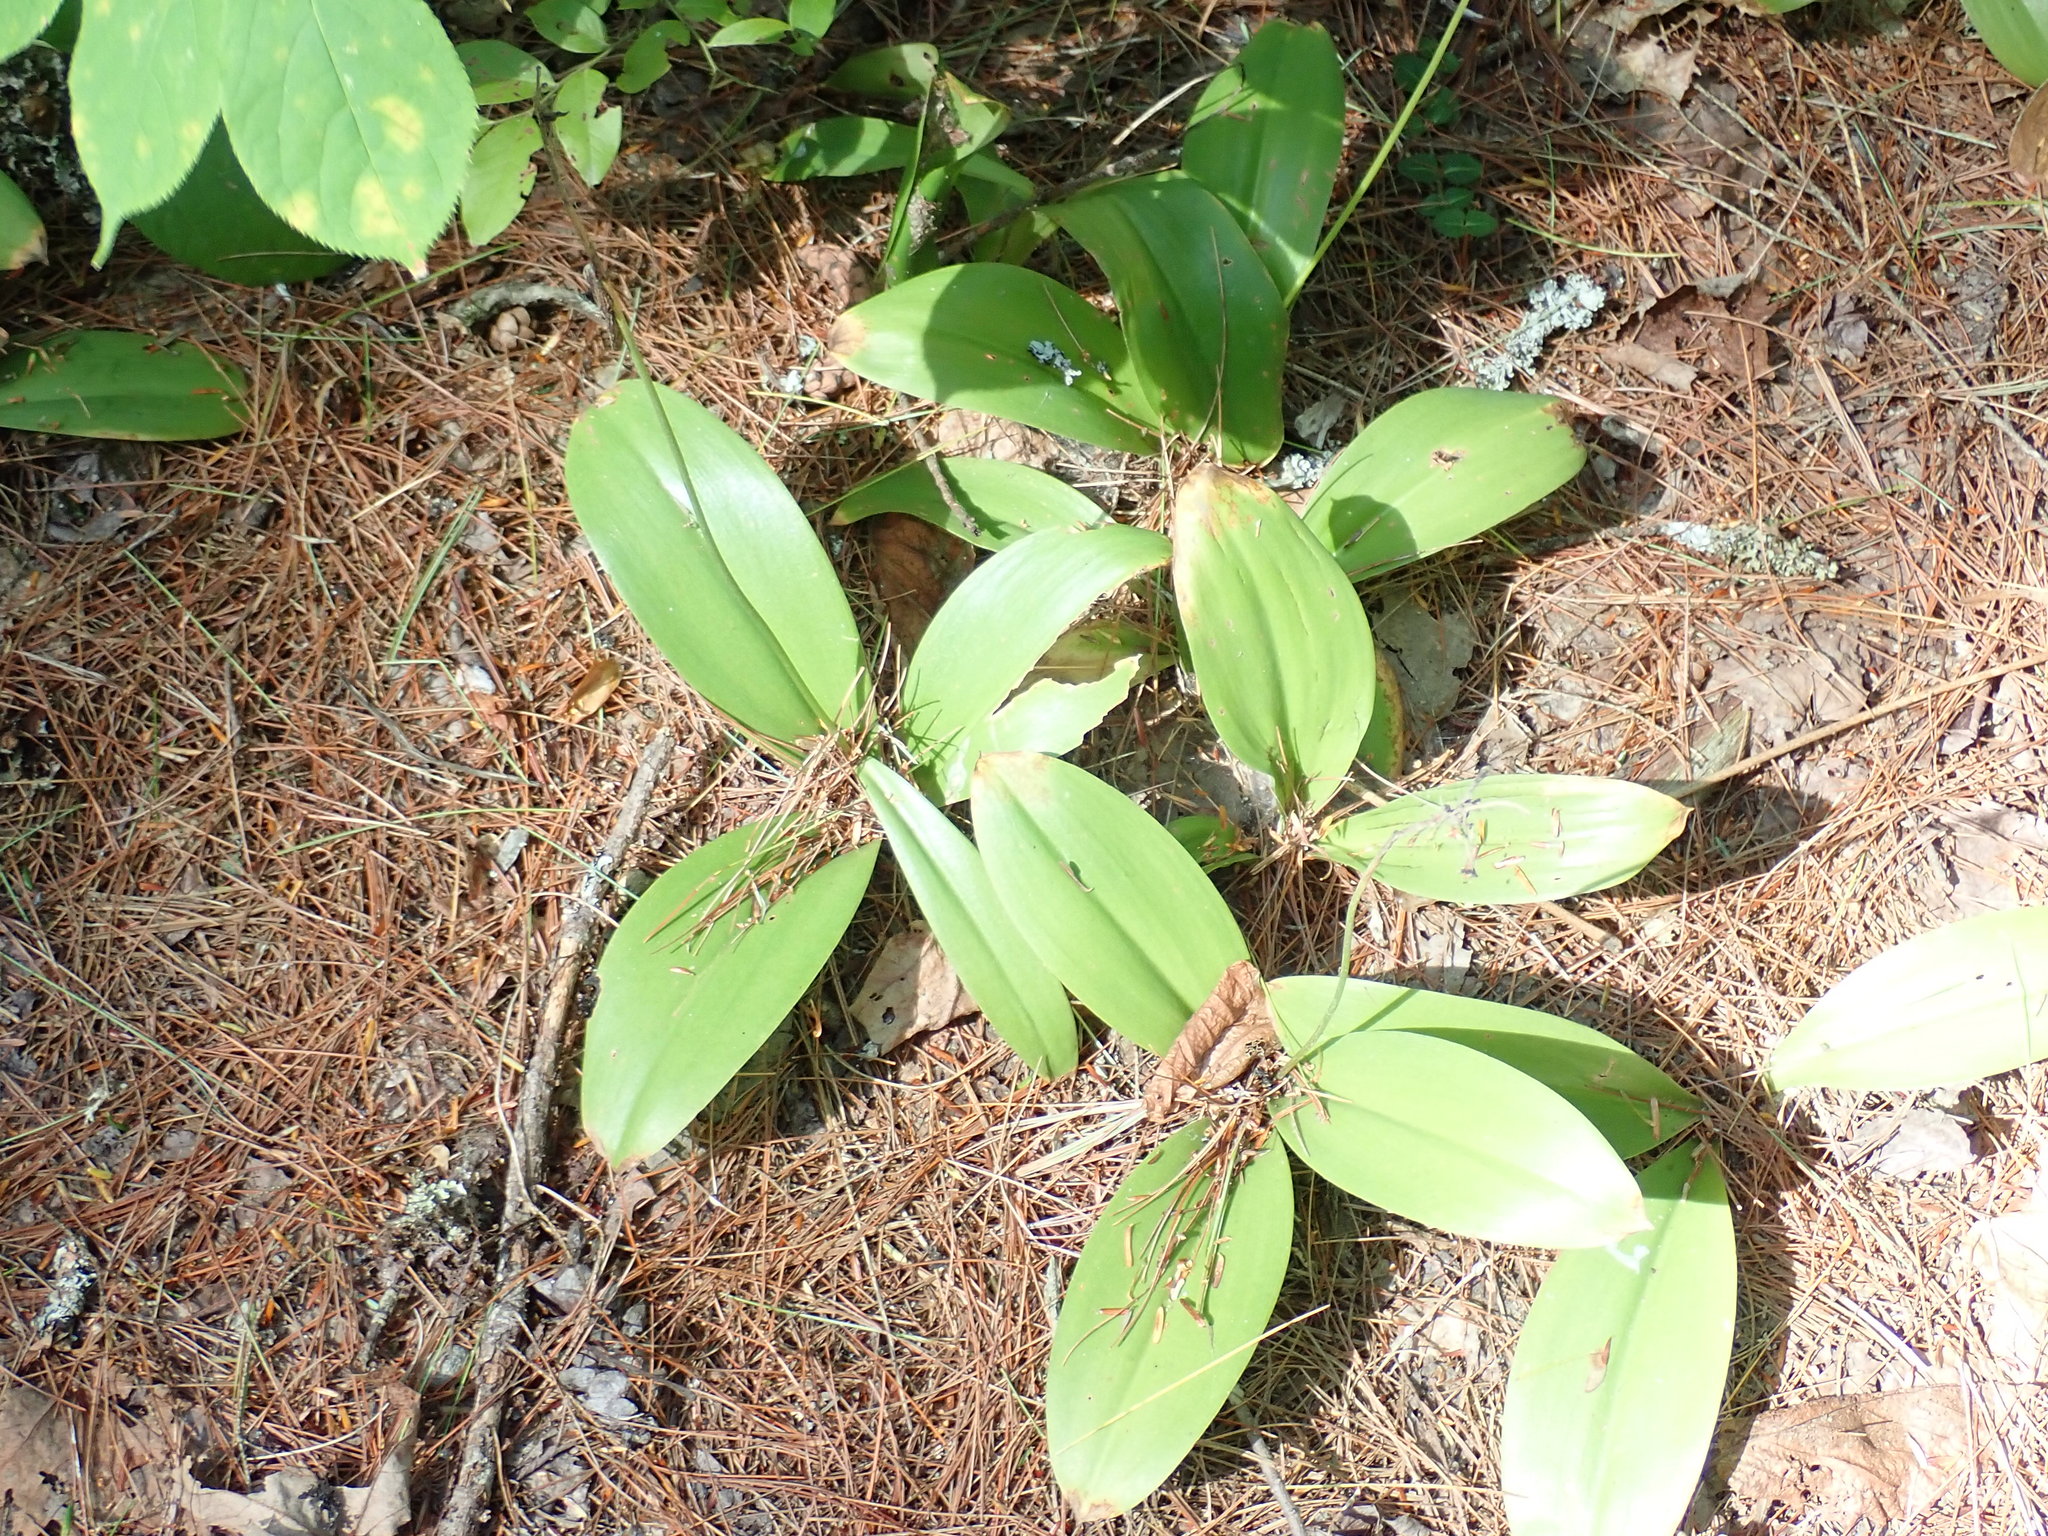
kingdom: Plantae
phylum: Tracheophyta
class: Liliopsida
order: Liliales
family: Liliaceae
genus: Clintonia
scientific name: Clintonia borealis
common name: Yellow clintonia
